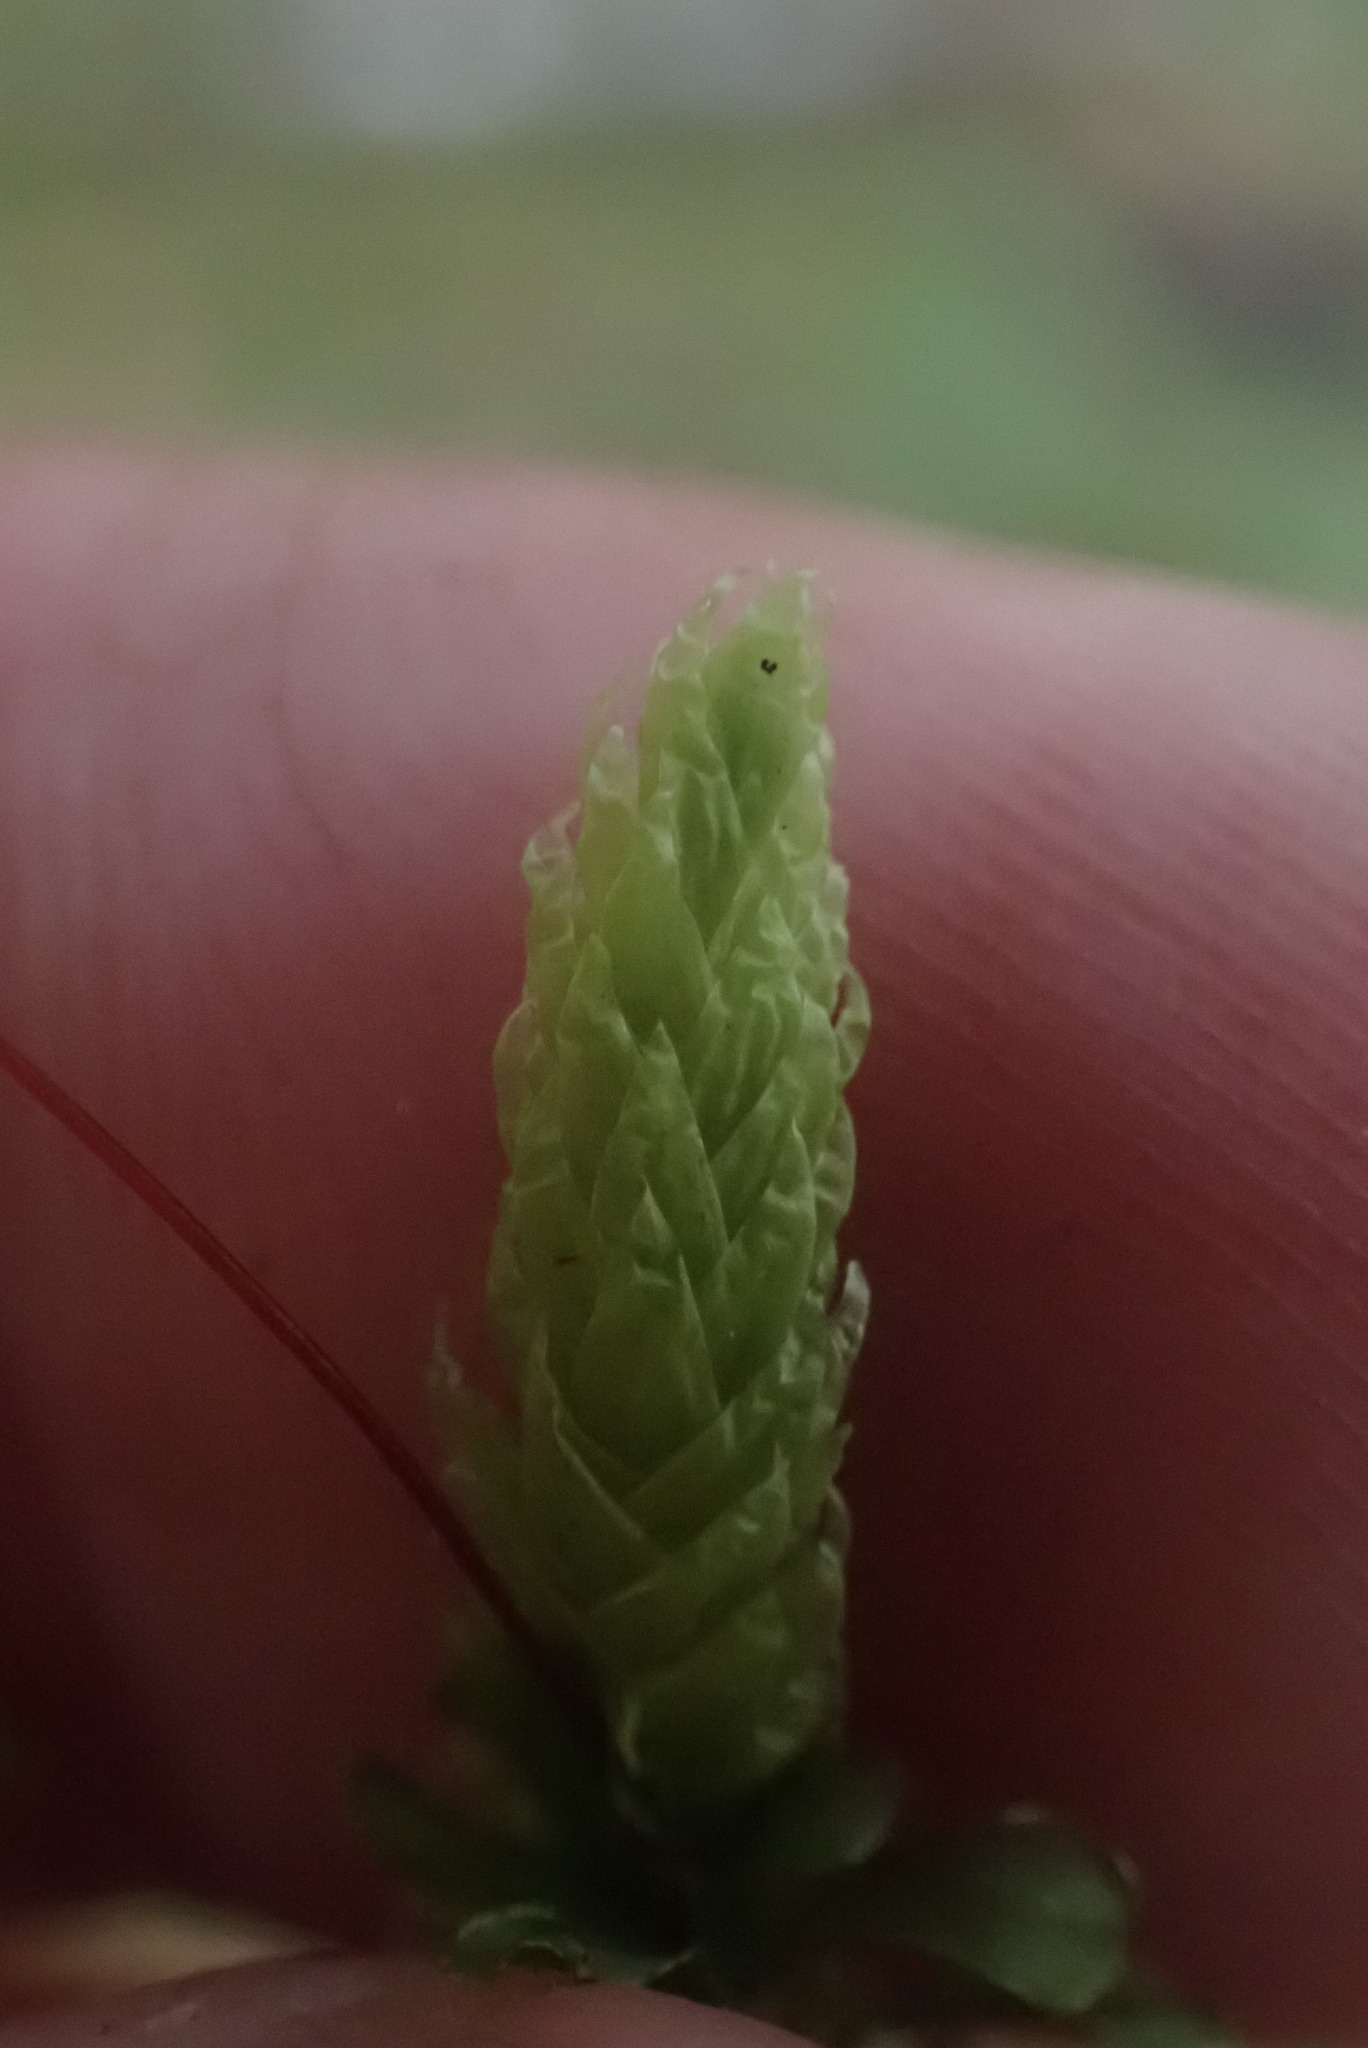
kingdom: Plantae
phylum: Bryophyta
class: Bryopsida
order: Hypnales
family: Plagiotheciaceae
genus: Plagiothecium
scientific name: Plagiothecium undulatum
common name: Waved silk-moss
